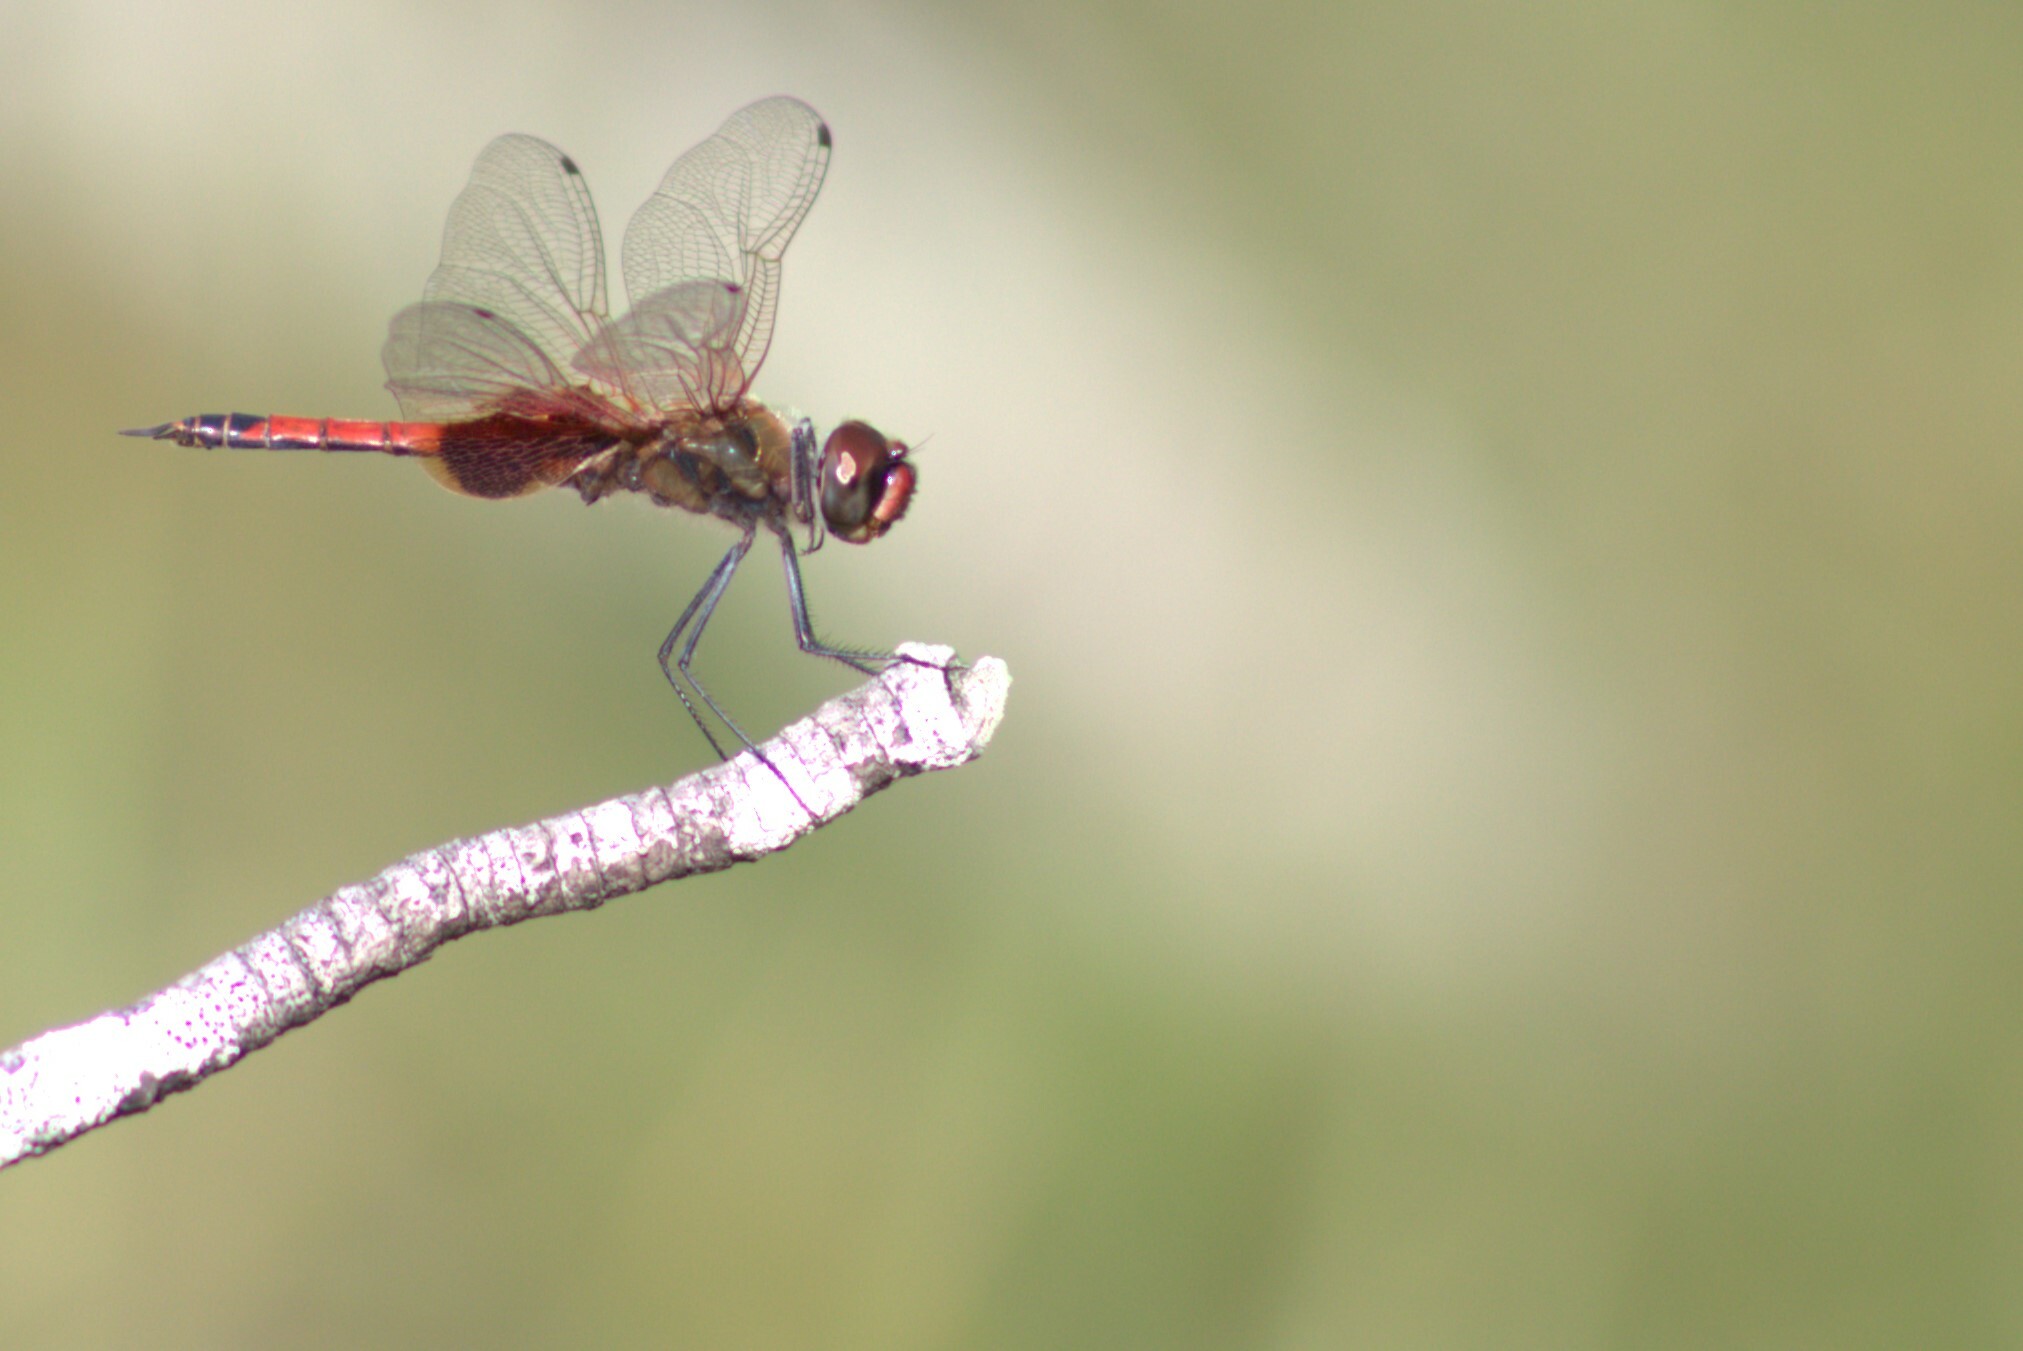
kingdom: Animalia
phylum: Arthropoda
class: Insecta
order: Odonata
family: Libellulidae
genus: Tramea
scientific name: Tramea loewii
